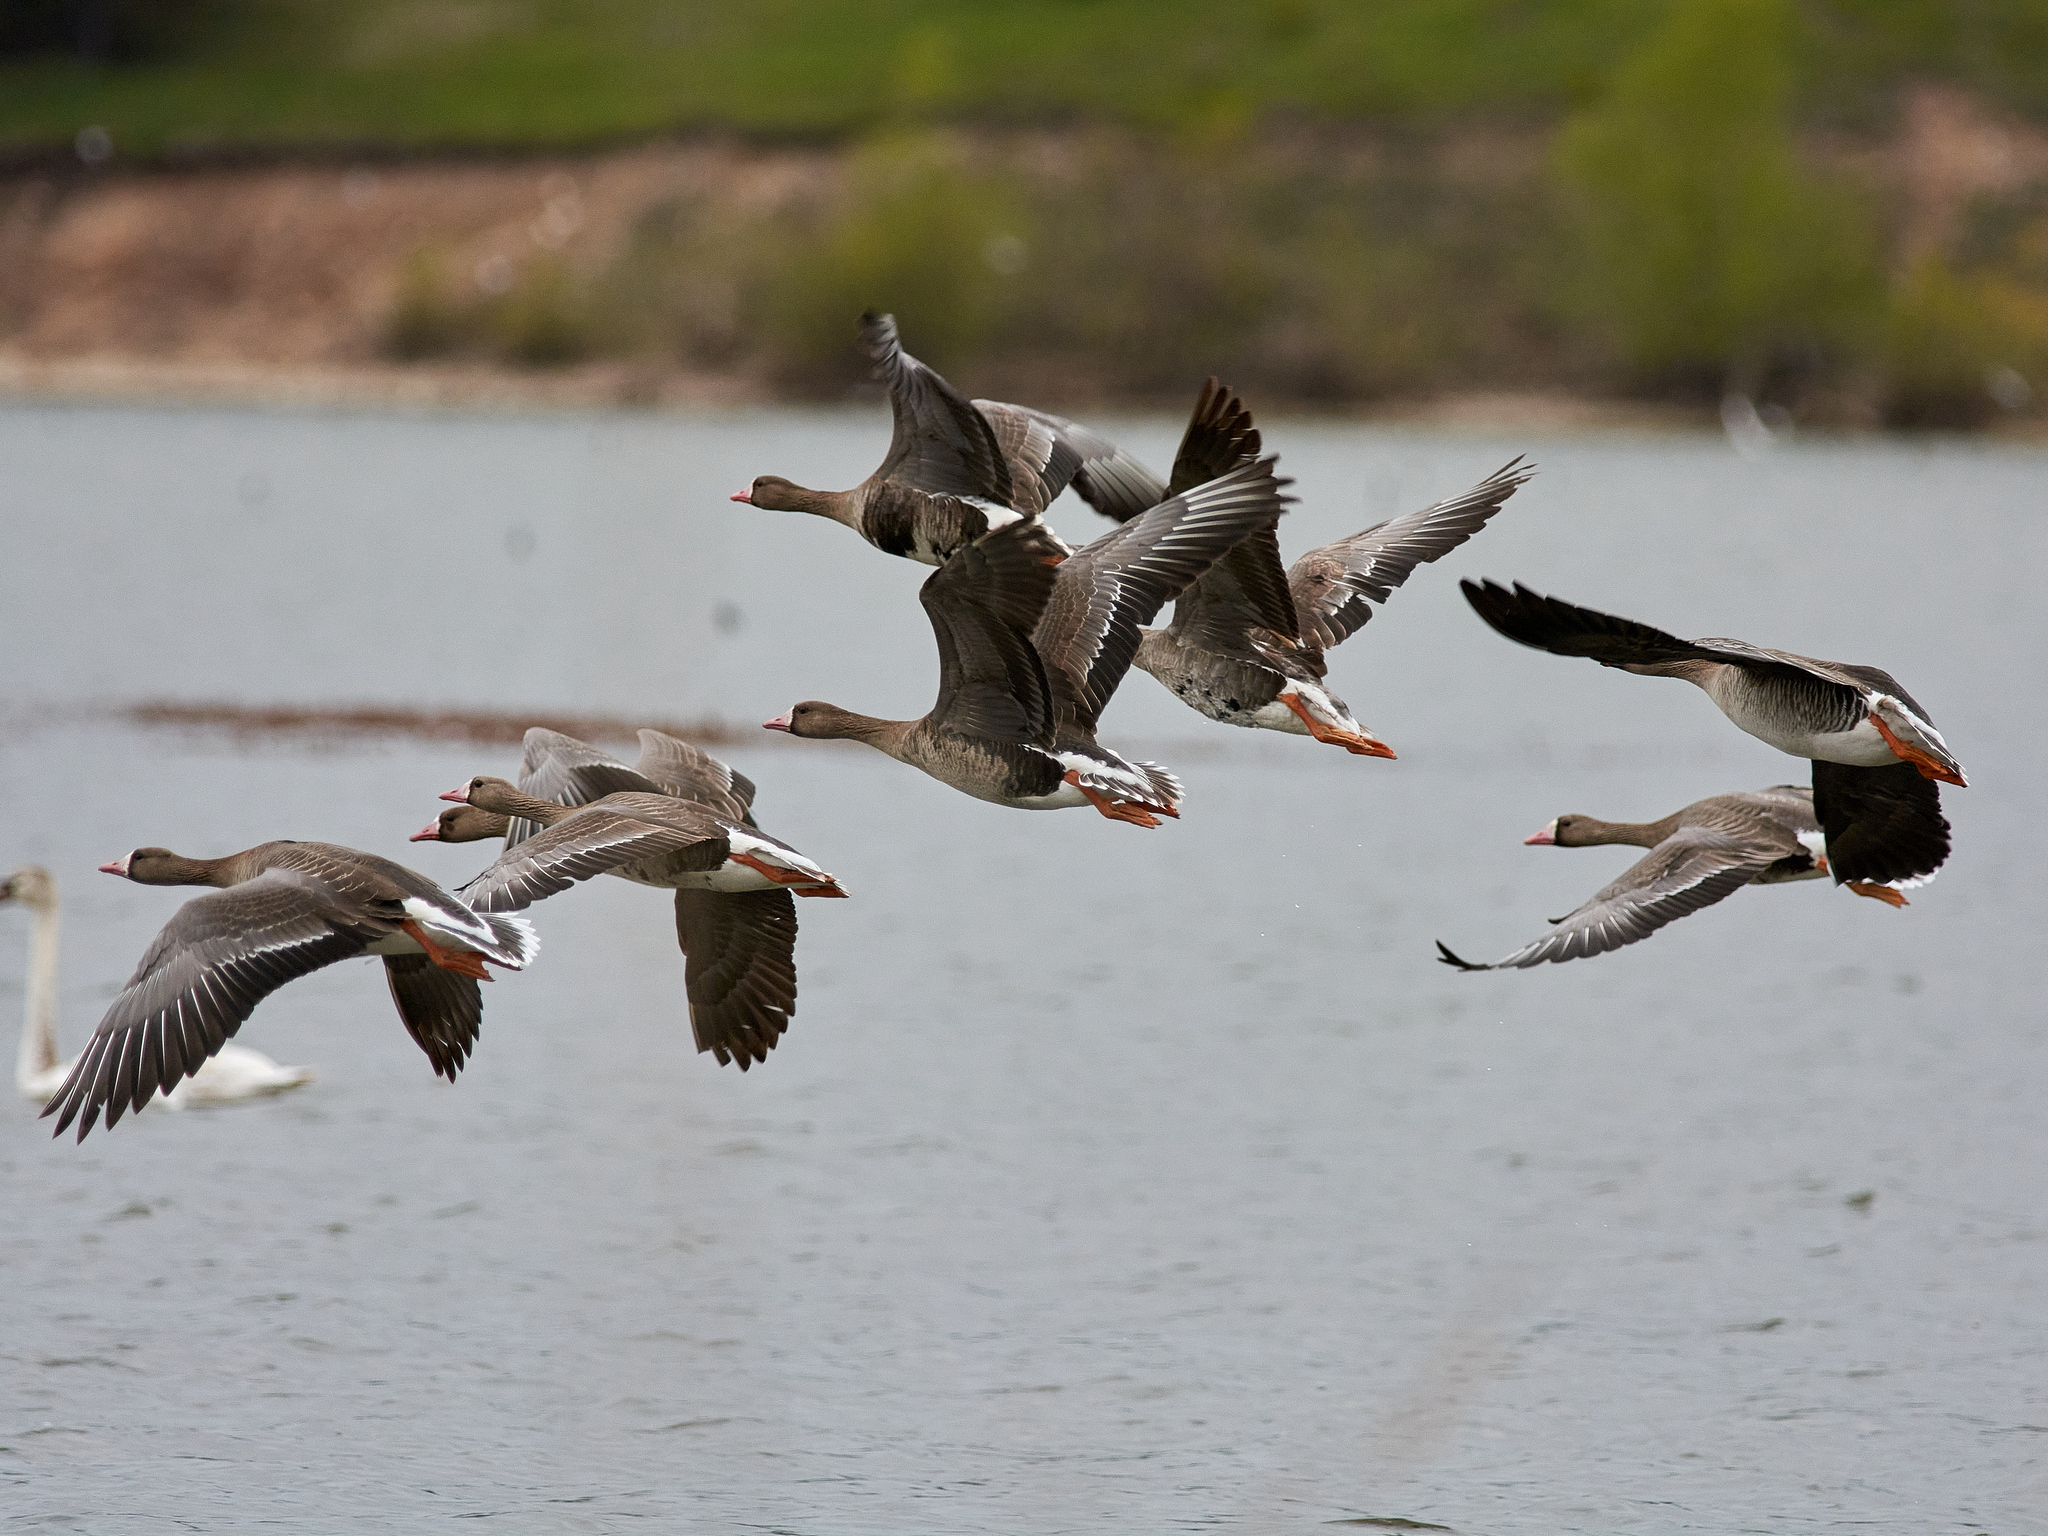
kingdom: Animalia
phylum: Chordata
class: Aves
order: Anseriformes
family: Anatidae
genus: Anser
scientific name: Anser albifrons
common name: Greater white-fronted goose
